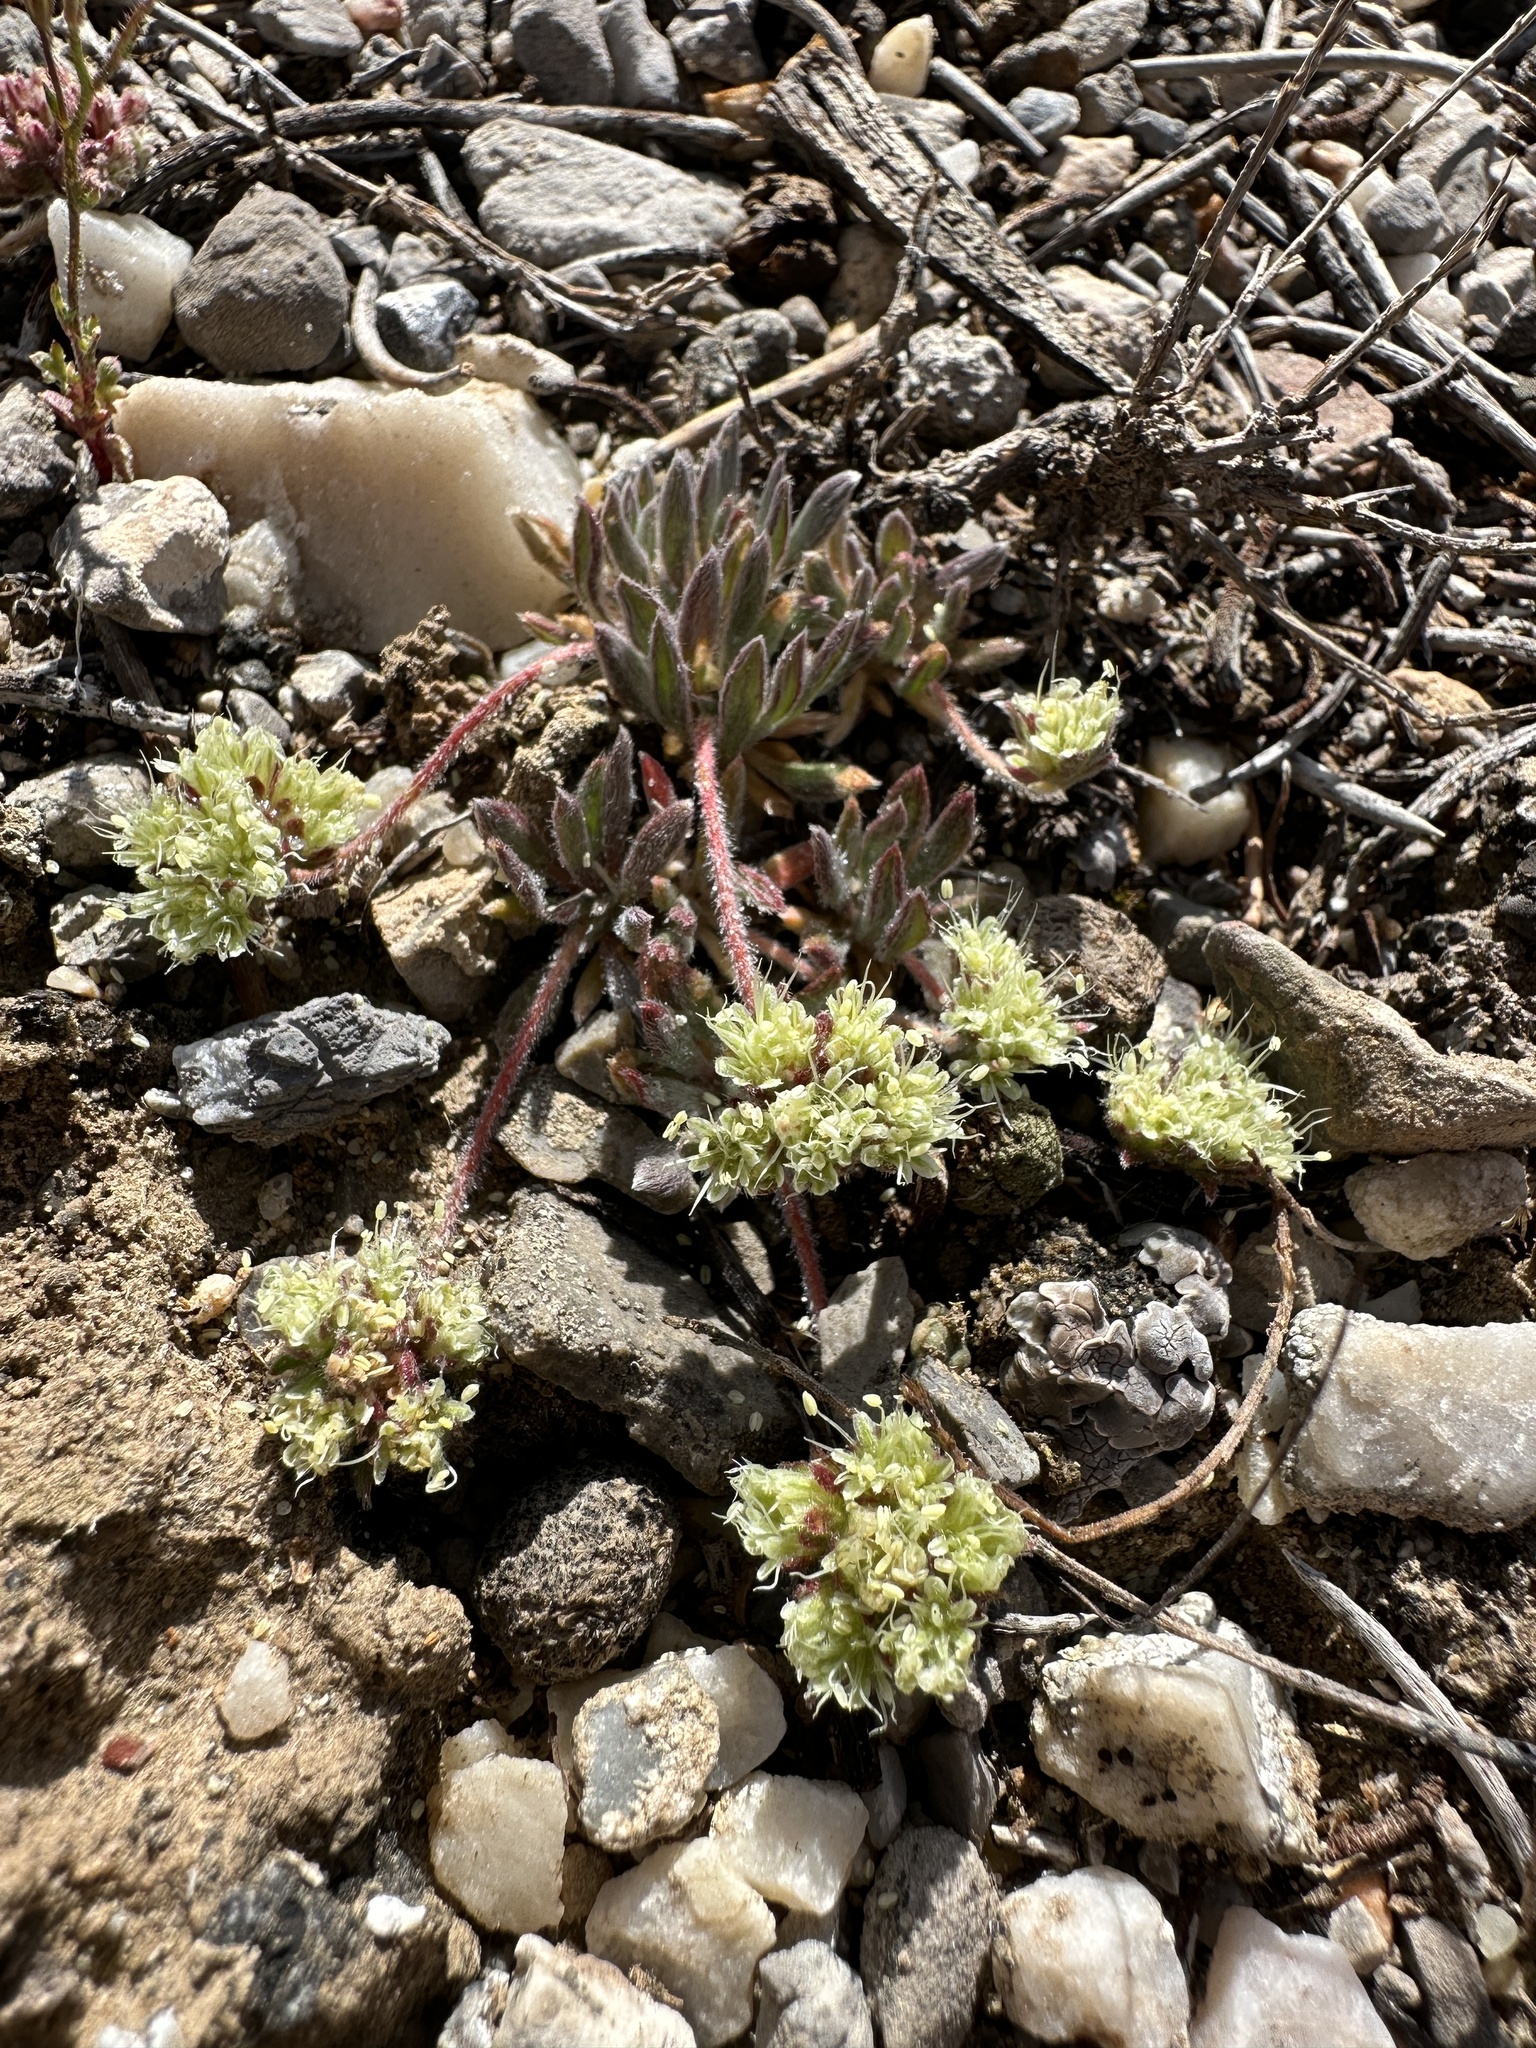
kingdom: Plantae
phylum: Tracheophyta
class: Magnoliopsida
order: Caryophyllales
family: Polygonaceae
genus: Eriogonum
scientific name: Eriogonum villiflorum
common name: Gray's wild buckwheat
